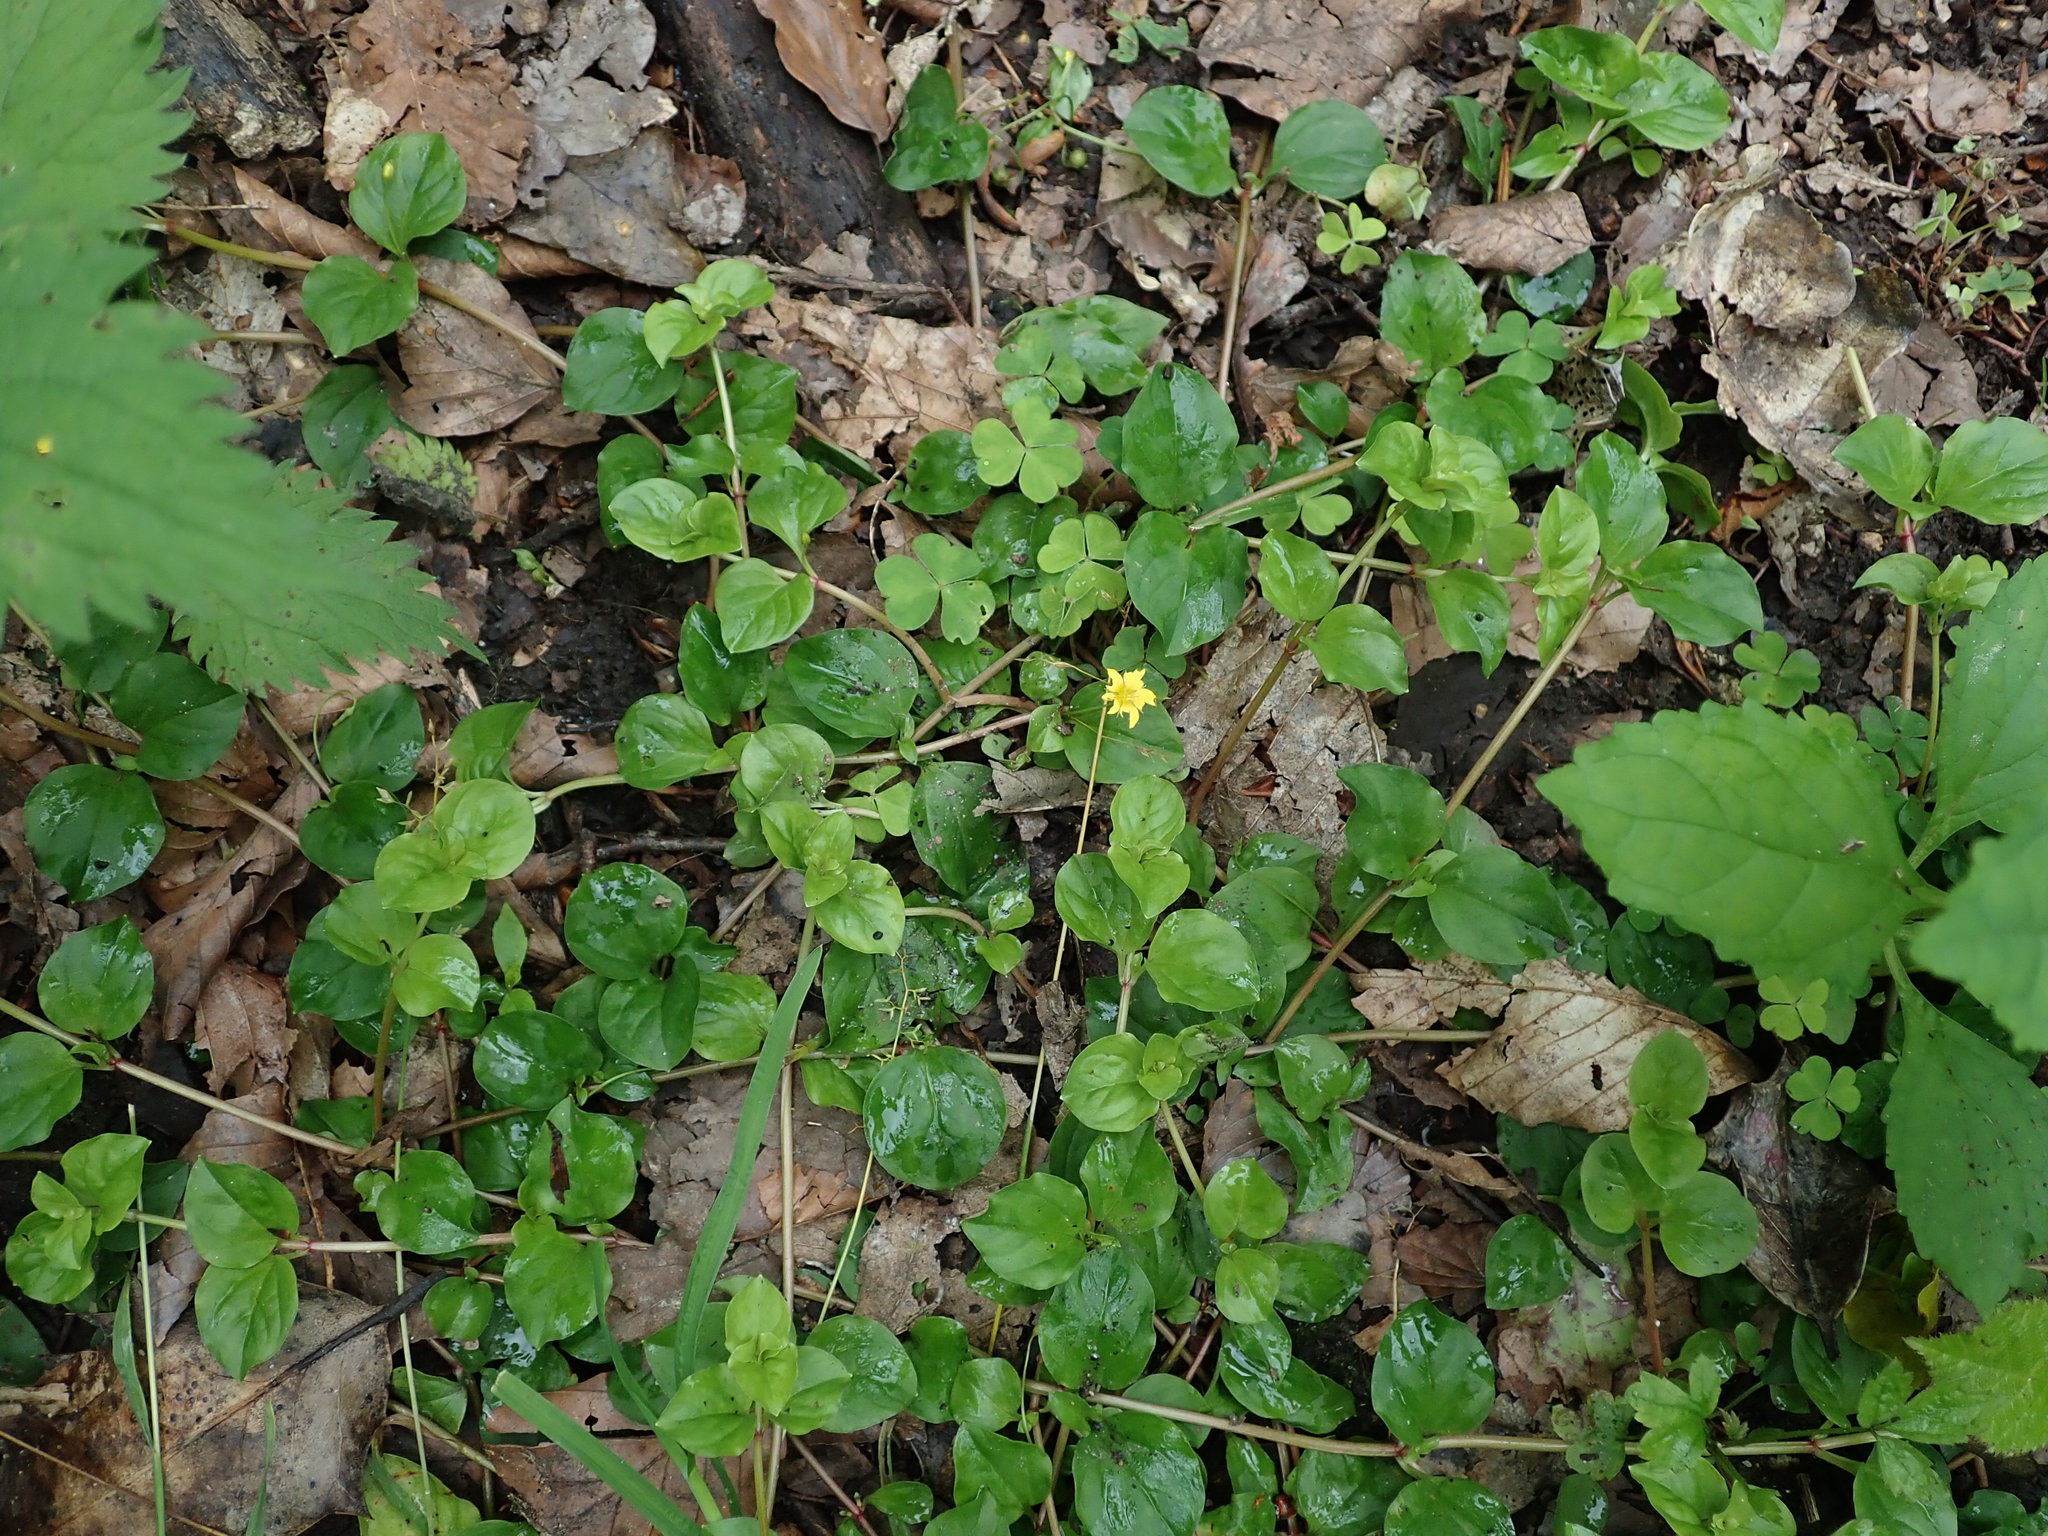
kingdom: Plantae
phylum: Tracheophyta
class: Magnoliopsida
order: Ericales
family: Primulaceae
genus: Lysimachia
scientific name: Lysimachia nemorum
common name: Yellow pimpernel
